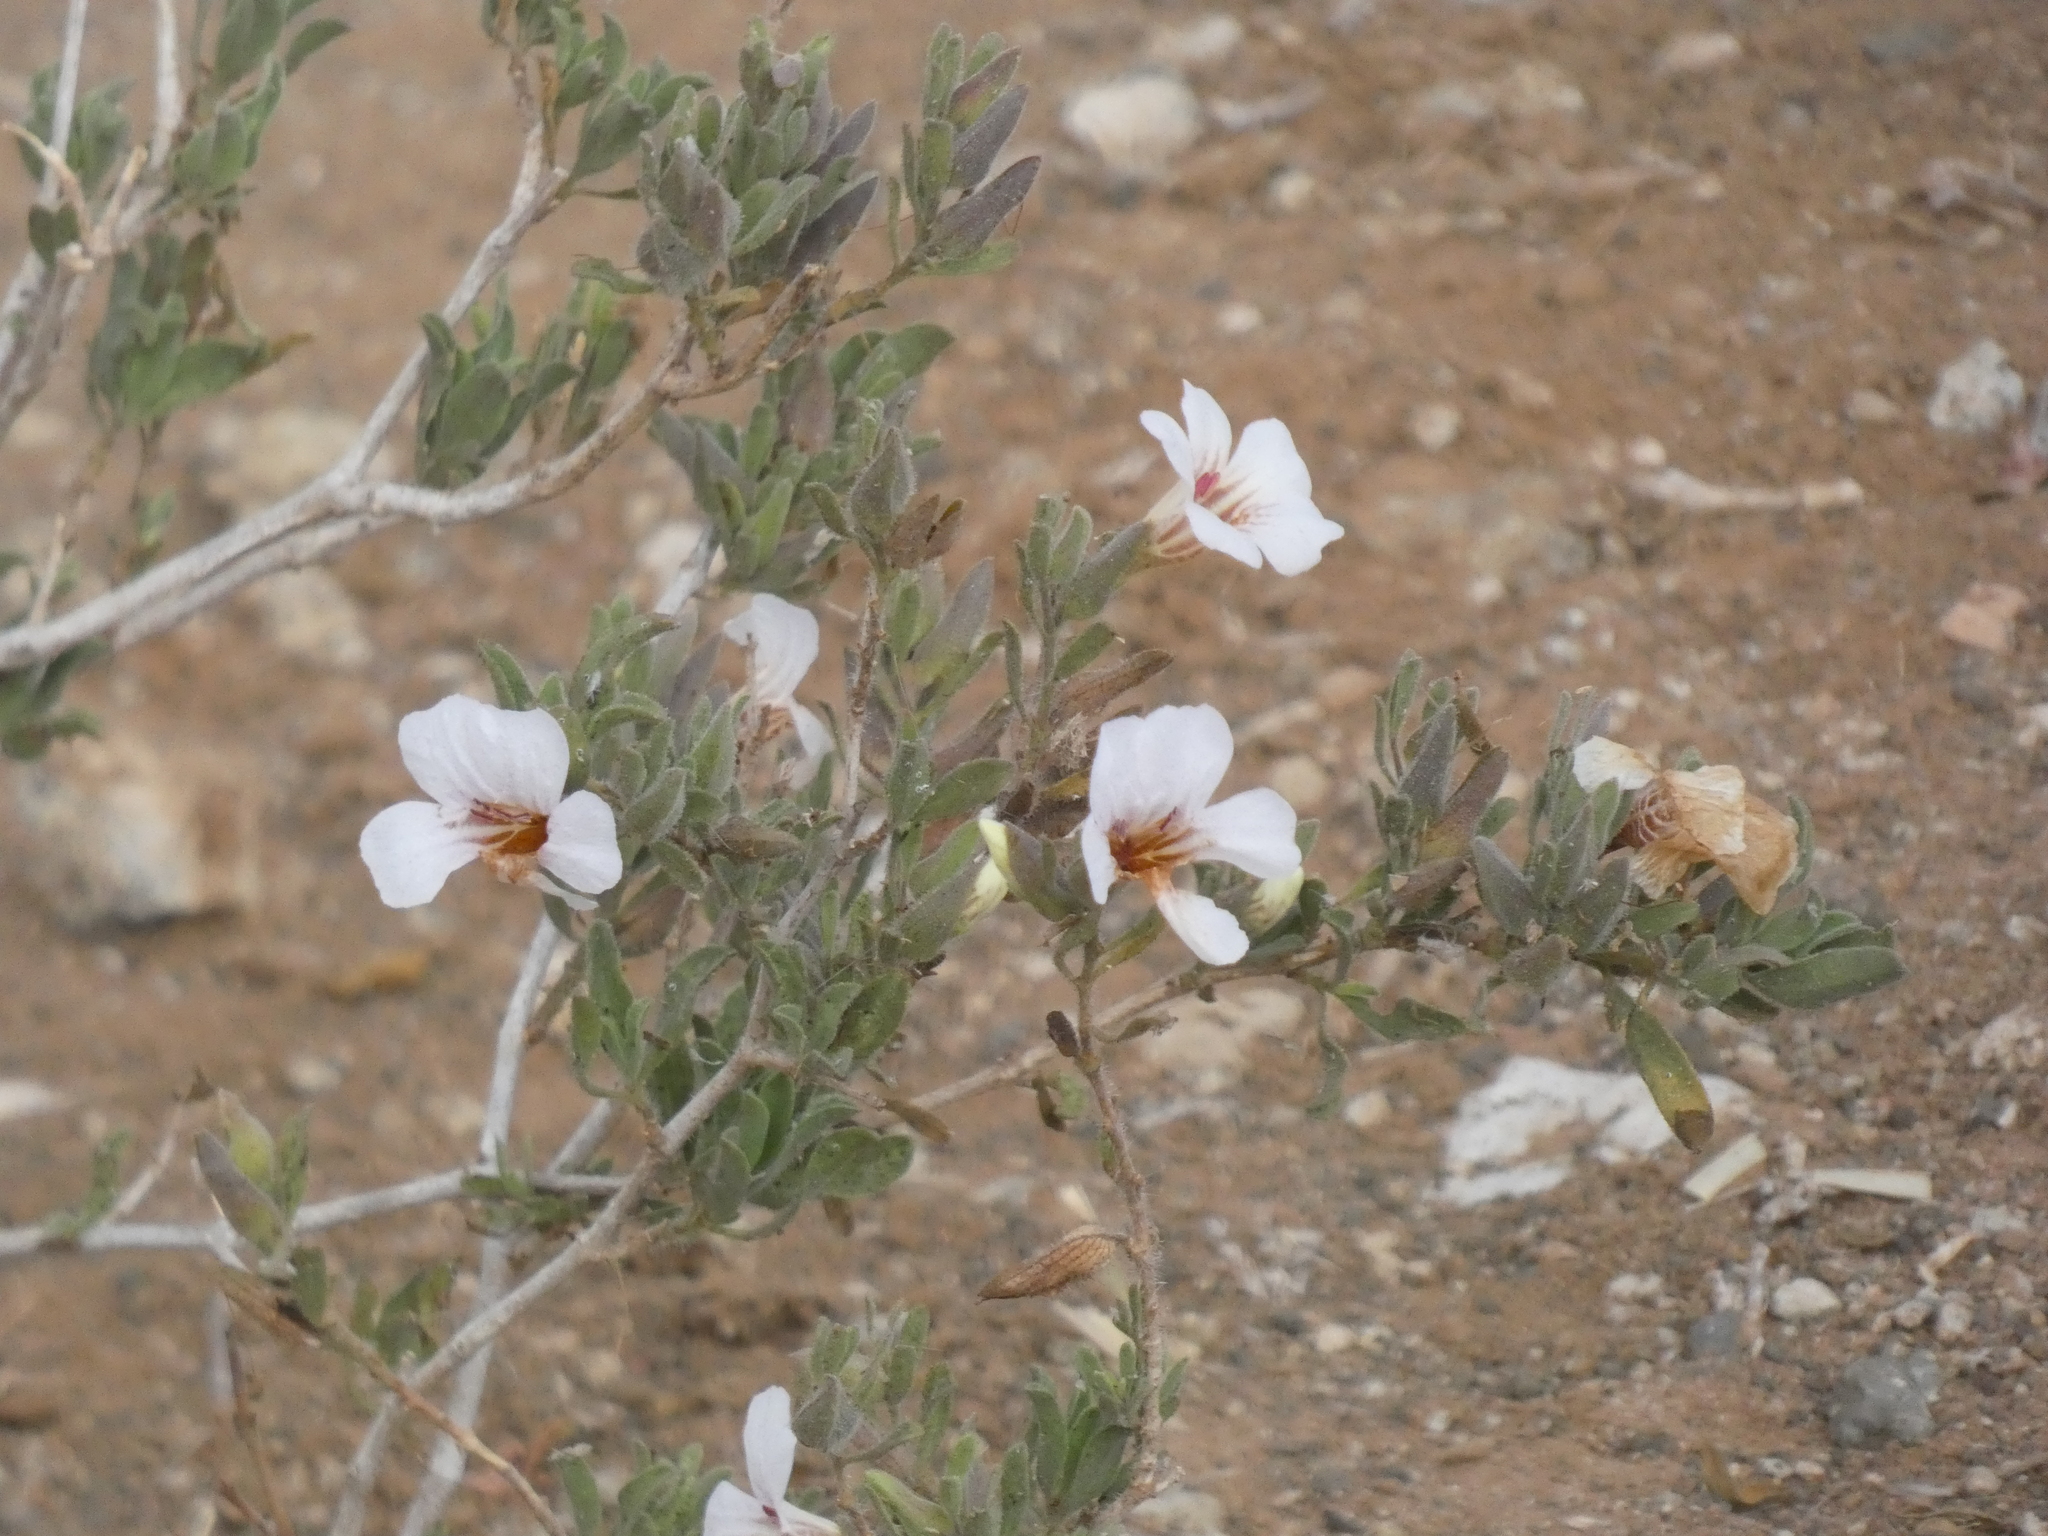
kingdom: Plantae
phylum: Tracheophyta
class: Magnoliopsida
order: Lamiales
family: Acanthaceae
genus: Petalidium
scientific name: Petalidium aromaticum
